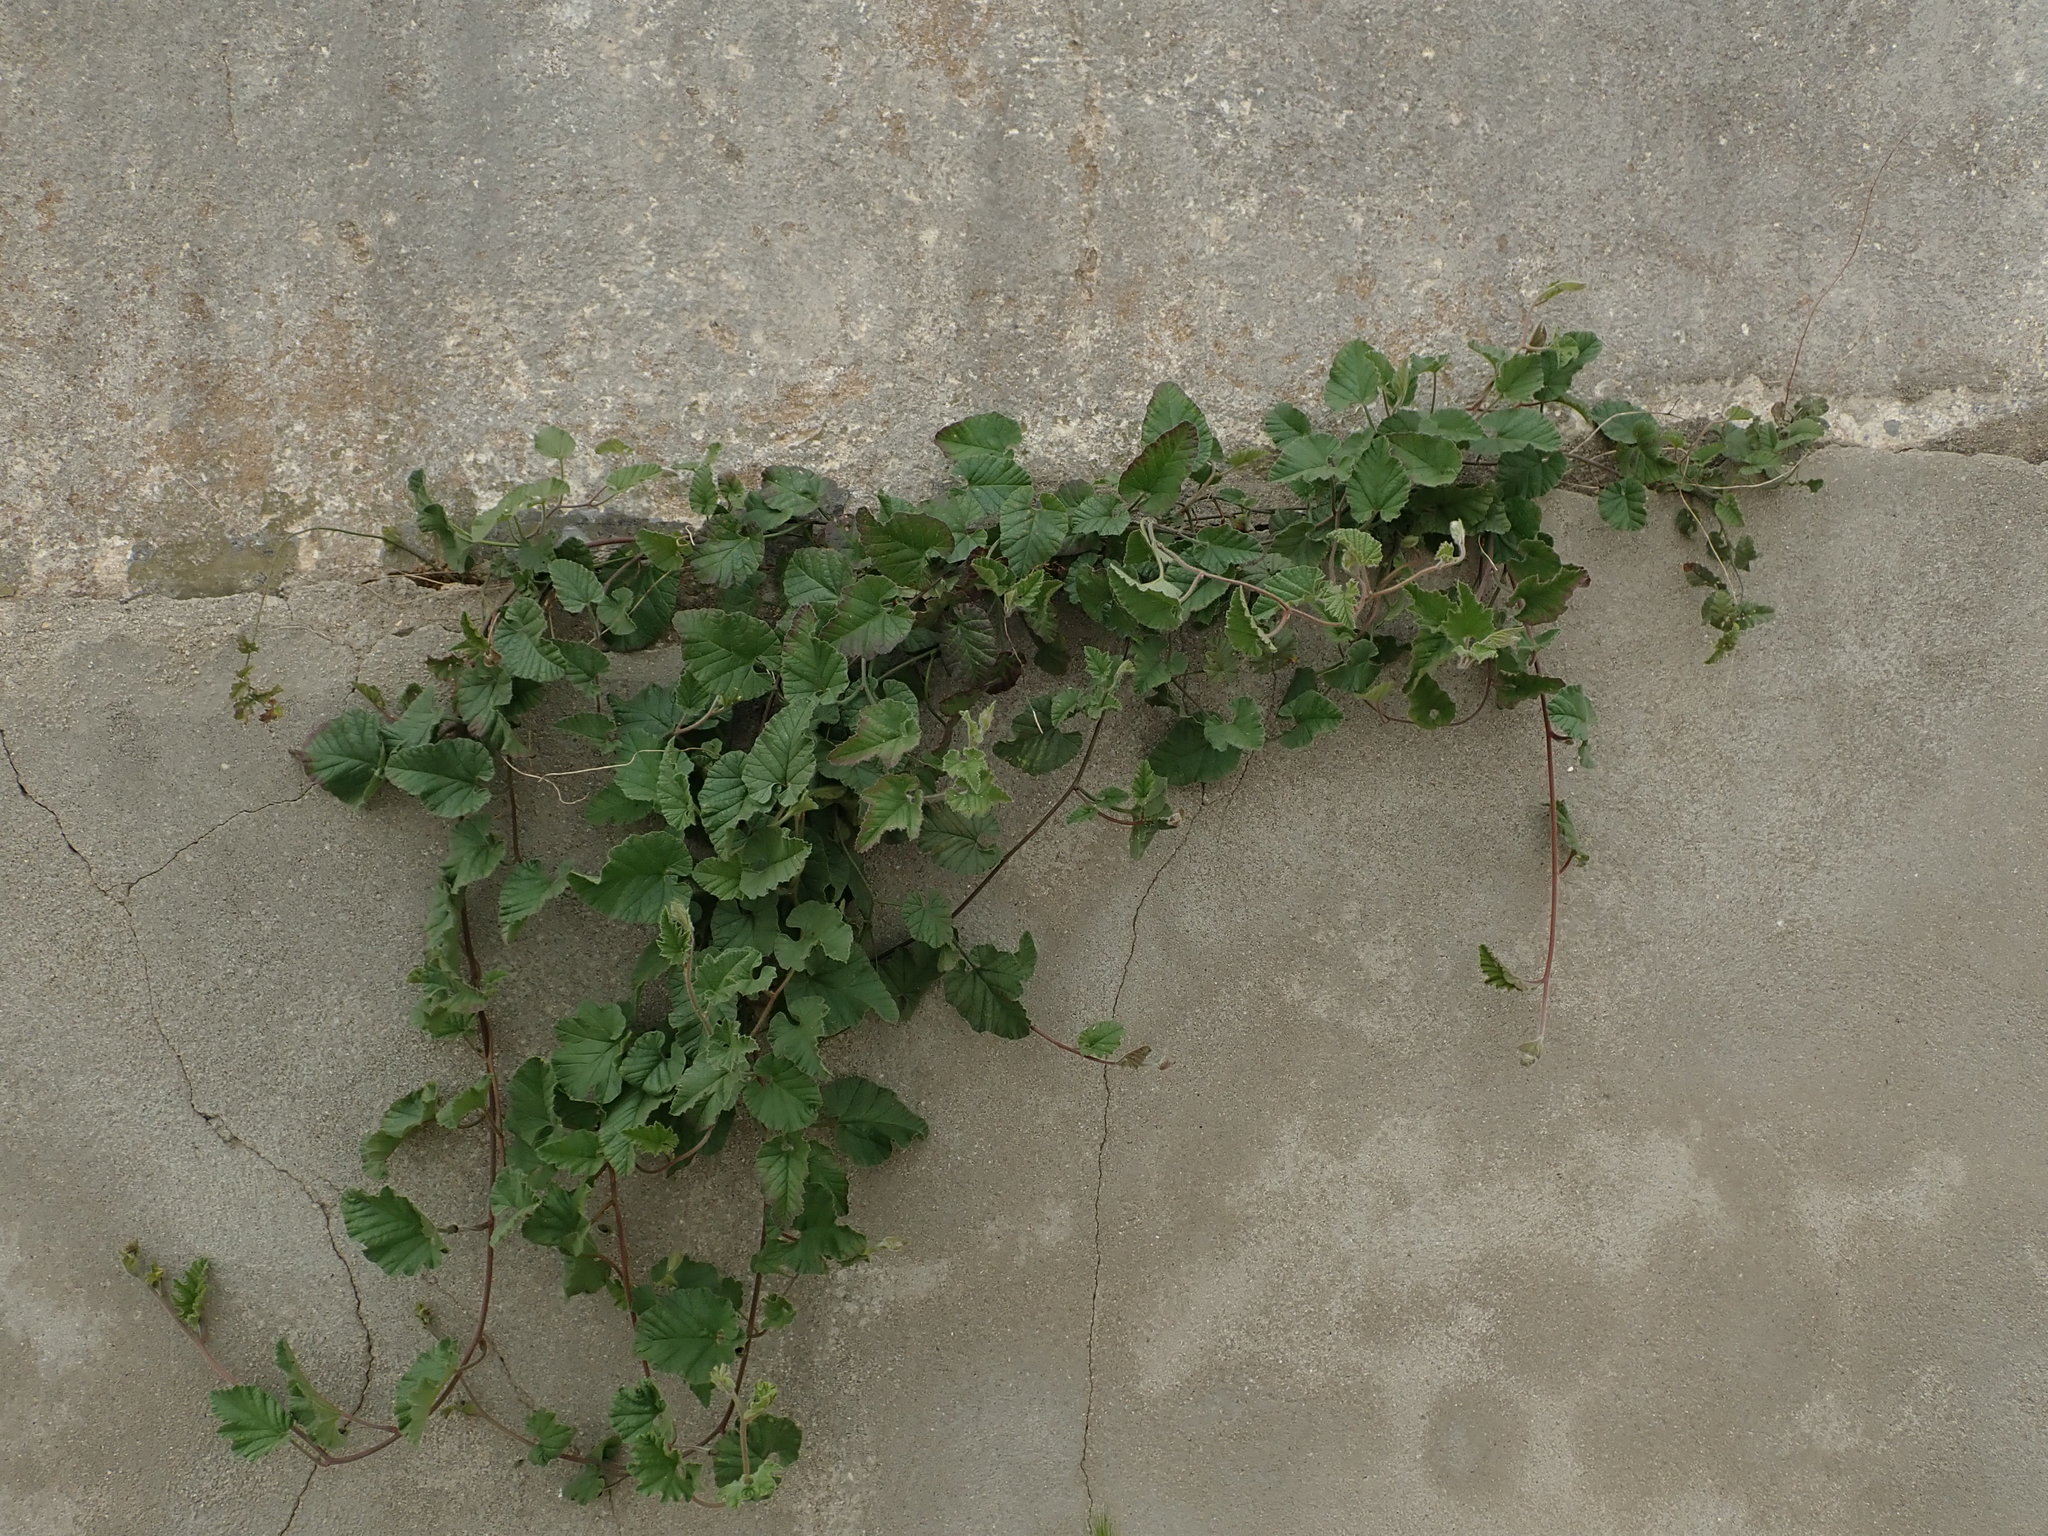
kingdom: Plantae
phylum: Tracheophyta
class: Magnoliopsida
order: Solanales
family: Convolvulaceae
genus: Convolvulus
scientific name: Convolvulus althaeoides
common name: Mallow bindweed
